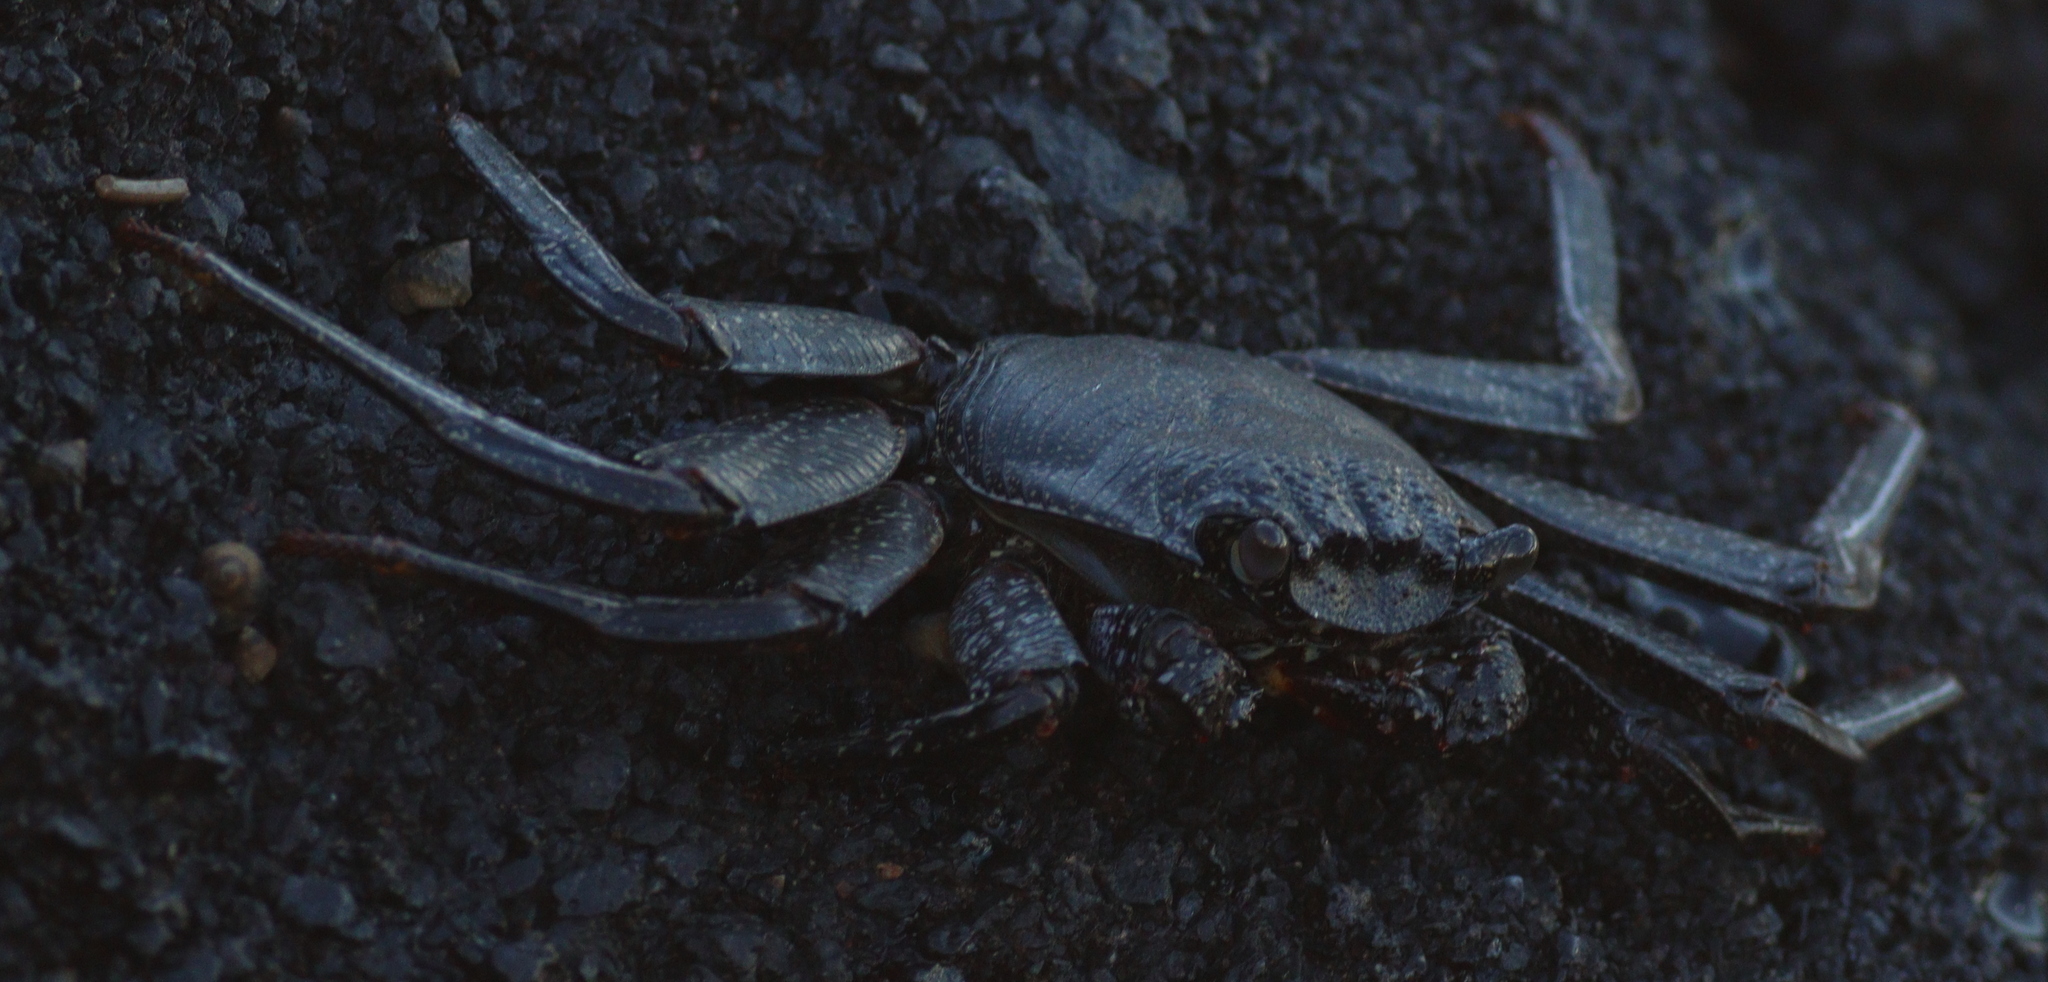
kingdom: Animalia
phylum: Arthropoda
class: Malacostraca
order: Decapoda
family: Grapsidae
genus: Grapsus
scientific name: Grapsus adscensionis
